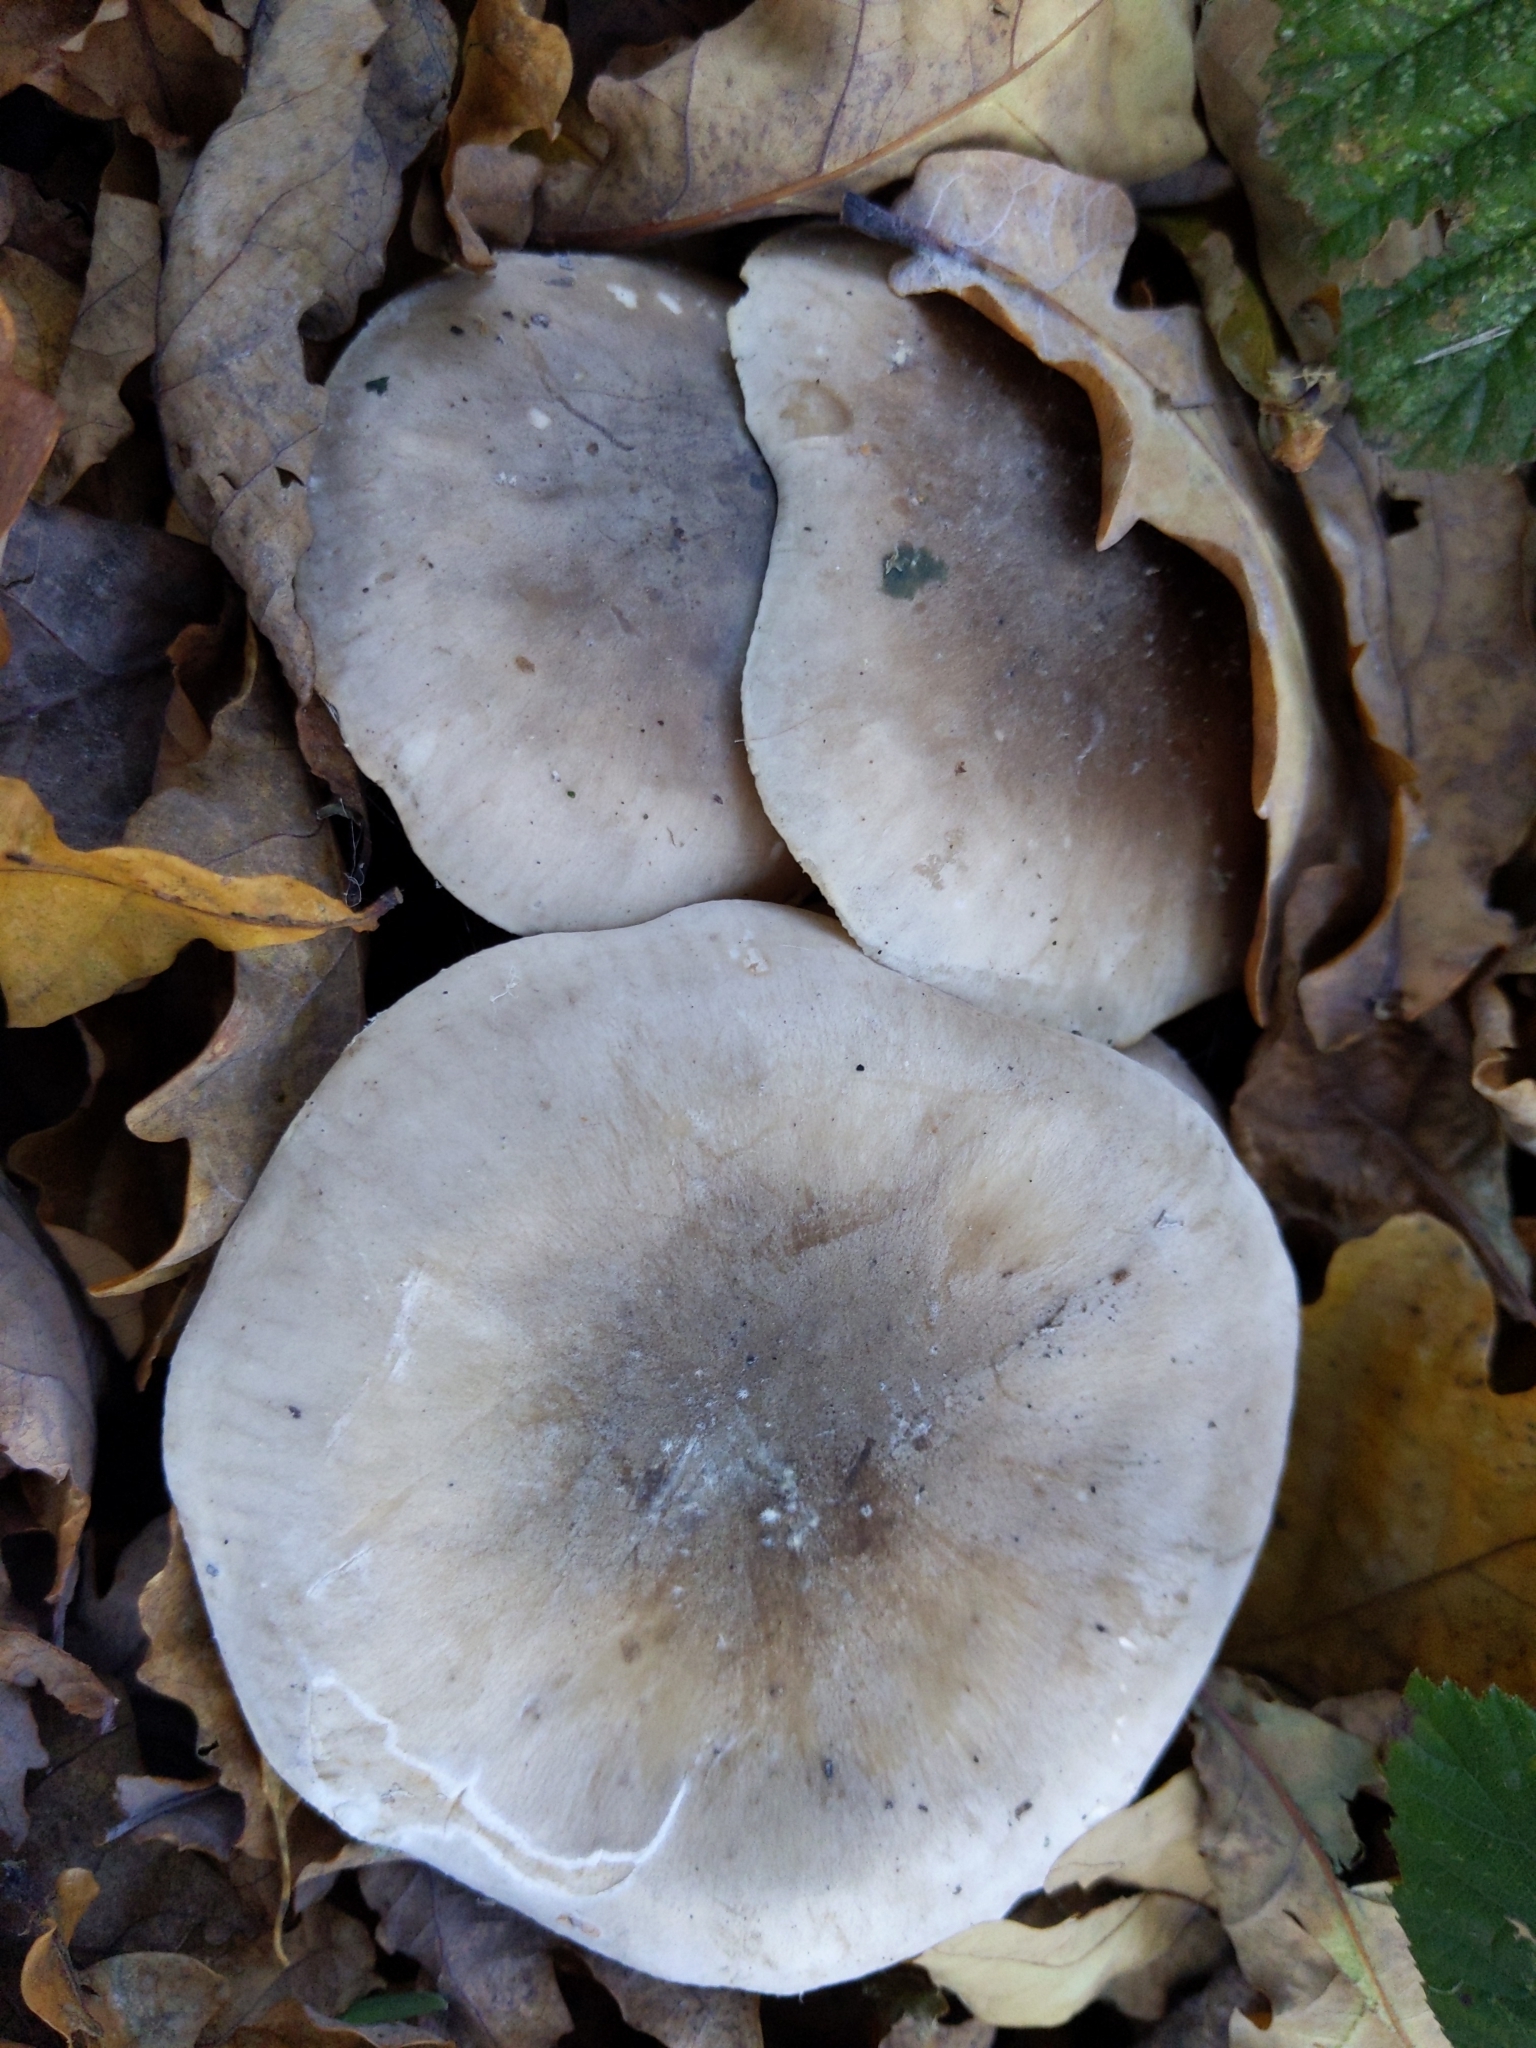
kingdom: Fungi
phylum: Basidiomycota
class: Agaricomycetes
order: Agaricales
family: Tricholomataceae
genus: Clitocybe
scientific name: Clitocybe nebularis
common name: Clouded agaric
